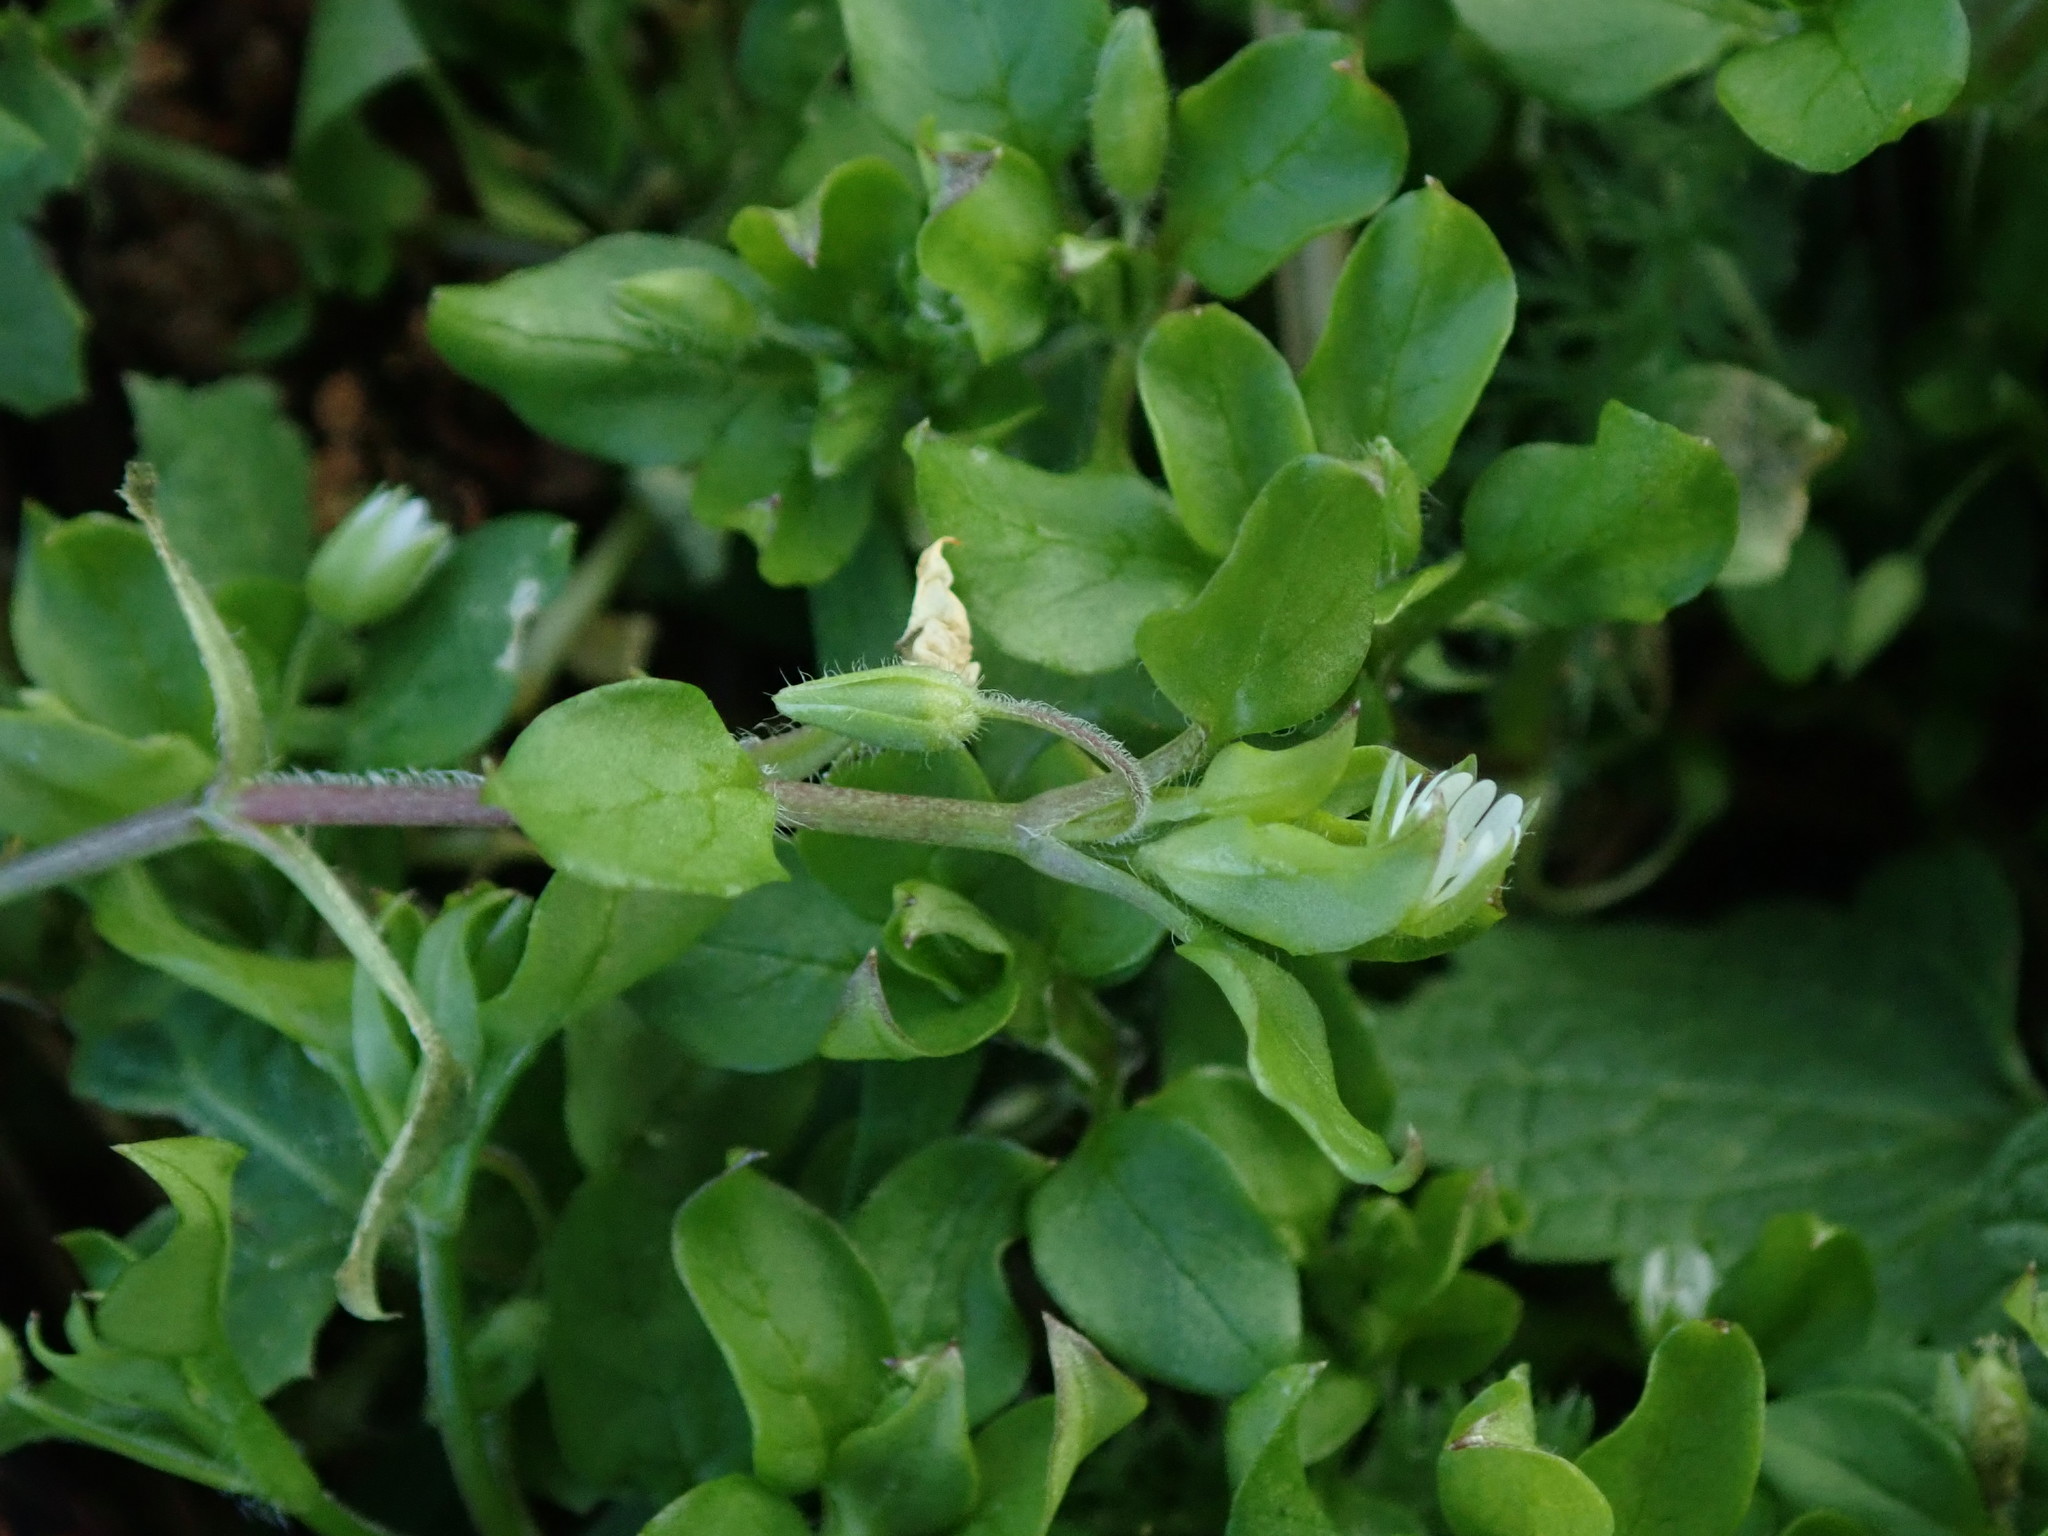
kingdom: Plantae
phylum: Tracheophyta
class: Magnoliopsida
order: Caryophyllales
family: Caryophyllaceae
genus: Stellaria
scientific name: Stellaria media
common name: Common chickweed
